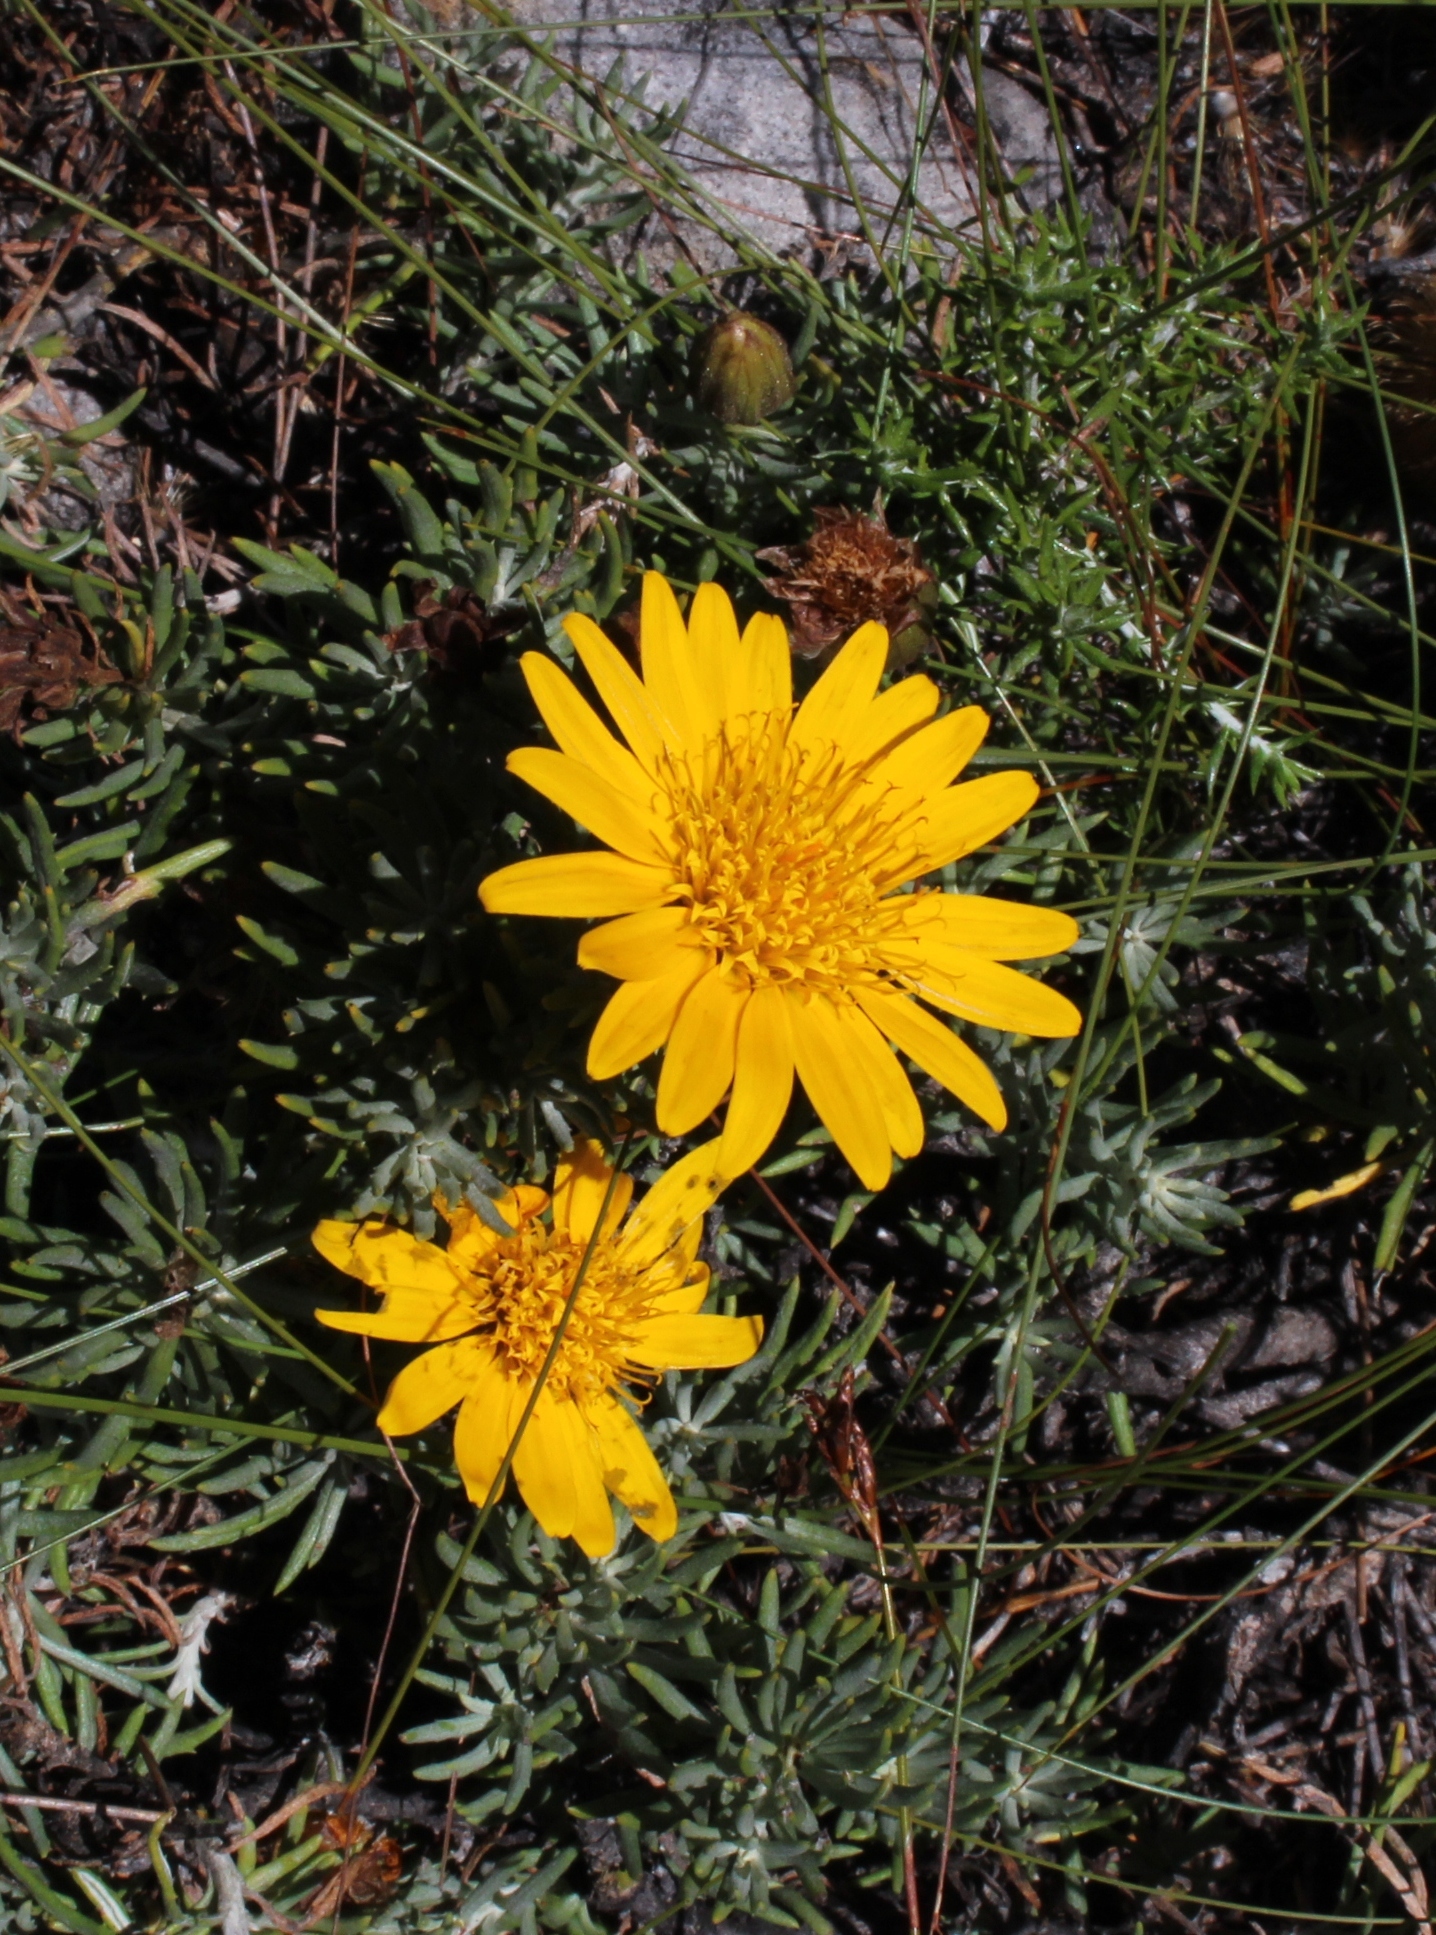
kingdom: Plantae
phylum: Tracheophyta
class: Magnoliopsida
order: Asterales
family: Asteraceae
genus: Heterolepis
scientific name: Heterolepis aliena
